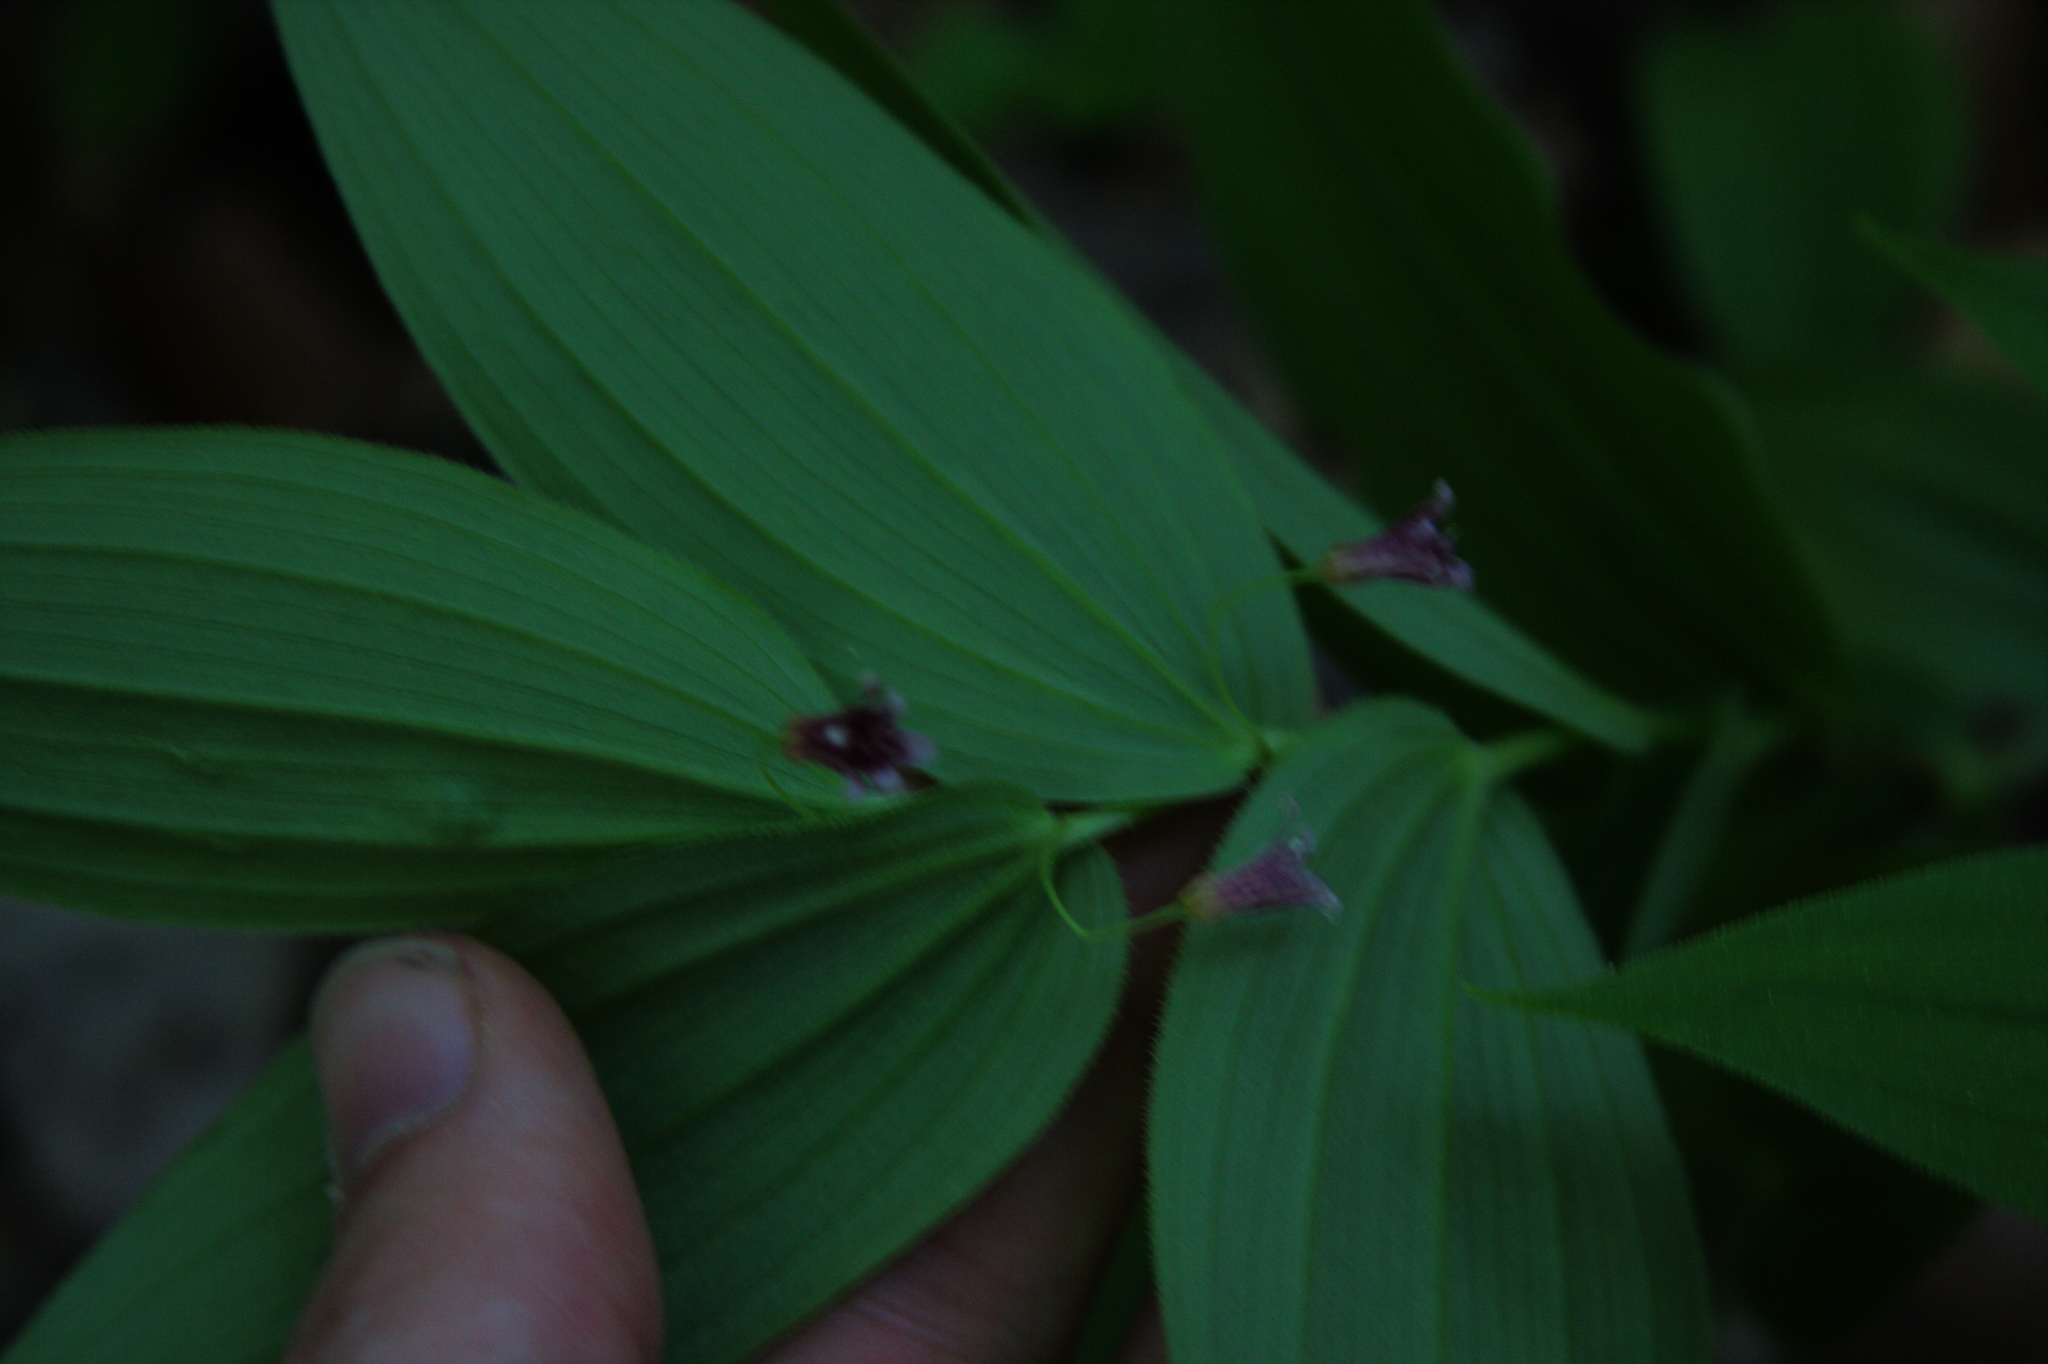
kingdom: Plantae
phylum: Tracheophyta
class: Liliopsida
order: Liliales
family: Liliaceae
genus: Streptopus
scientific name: Streptopus lanceolatus
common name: Rose mandarin
